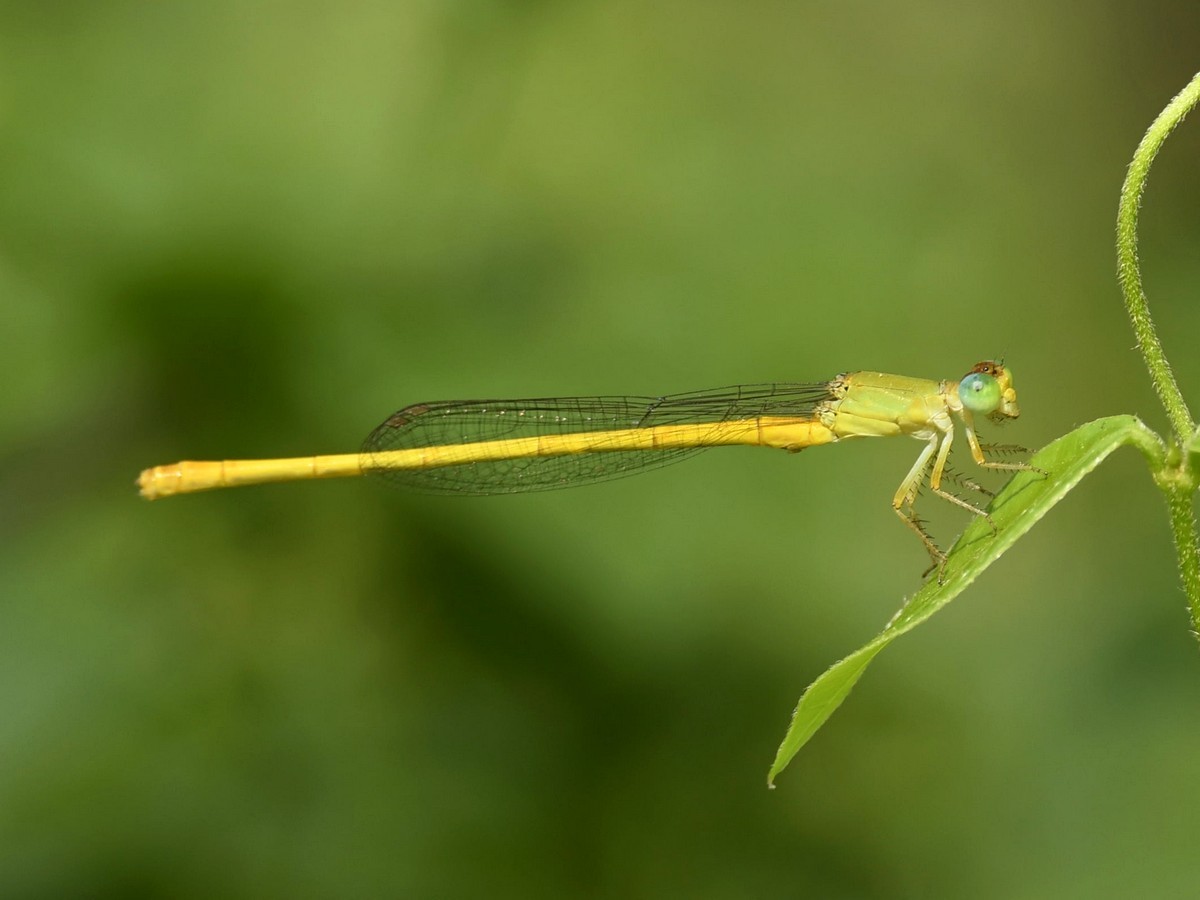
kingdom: Animalia
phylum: Arthropoda
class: Insecta
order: Odonata
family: Coenagrionidae
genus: Ceriagrion
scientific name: Ceriagrion coromandelianum
